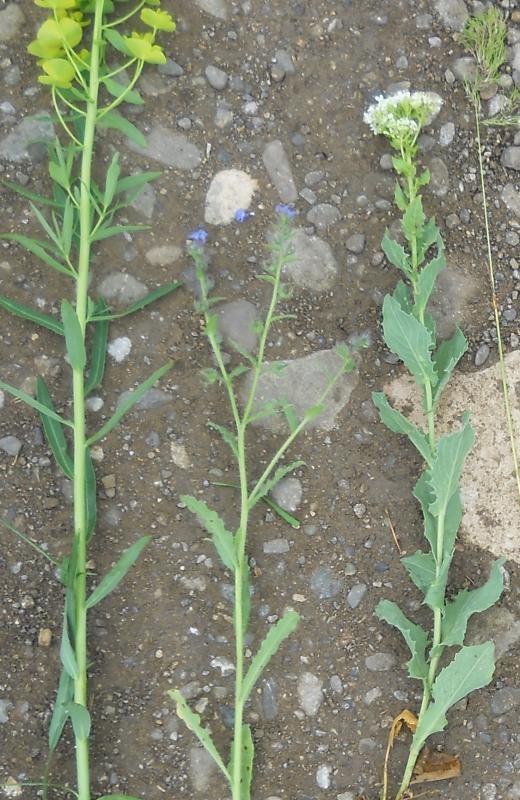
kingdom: Plantae
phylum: Tracheophyta
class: Magnoliopsida
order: Boraginales
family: Boraginaceae
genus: Lycopsis
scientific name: Lycopsis arvensis
